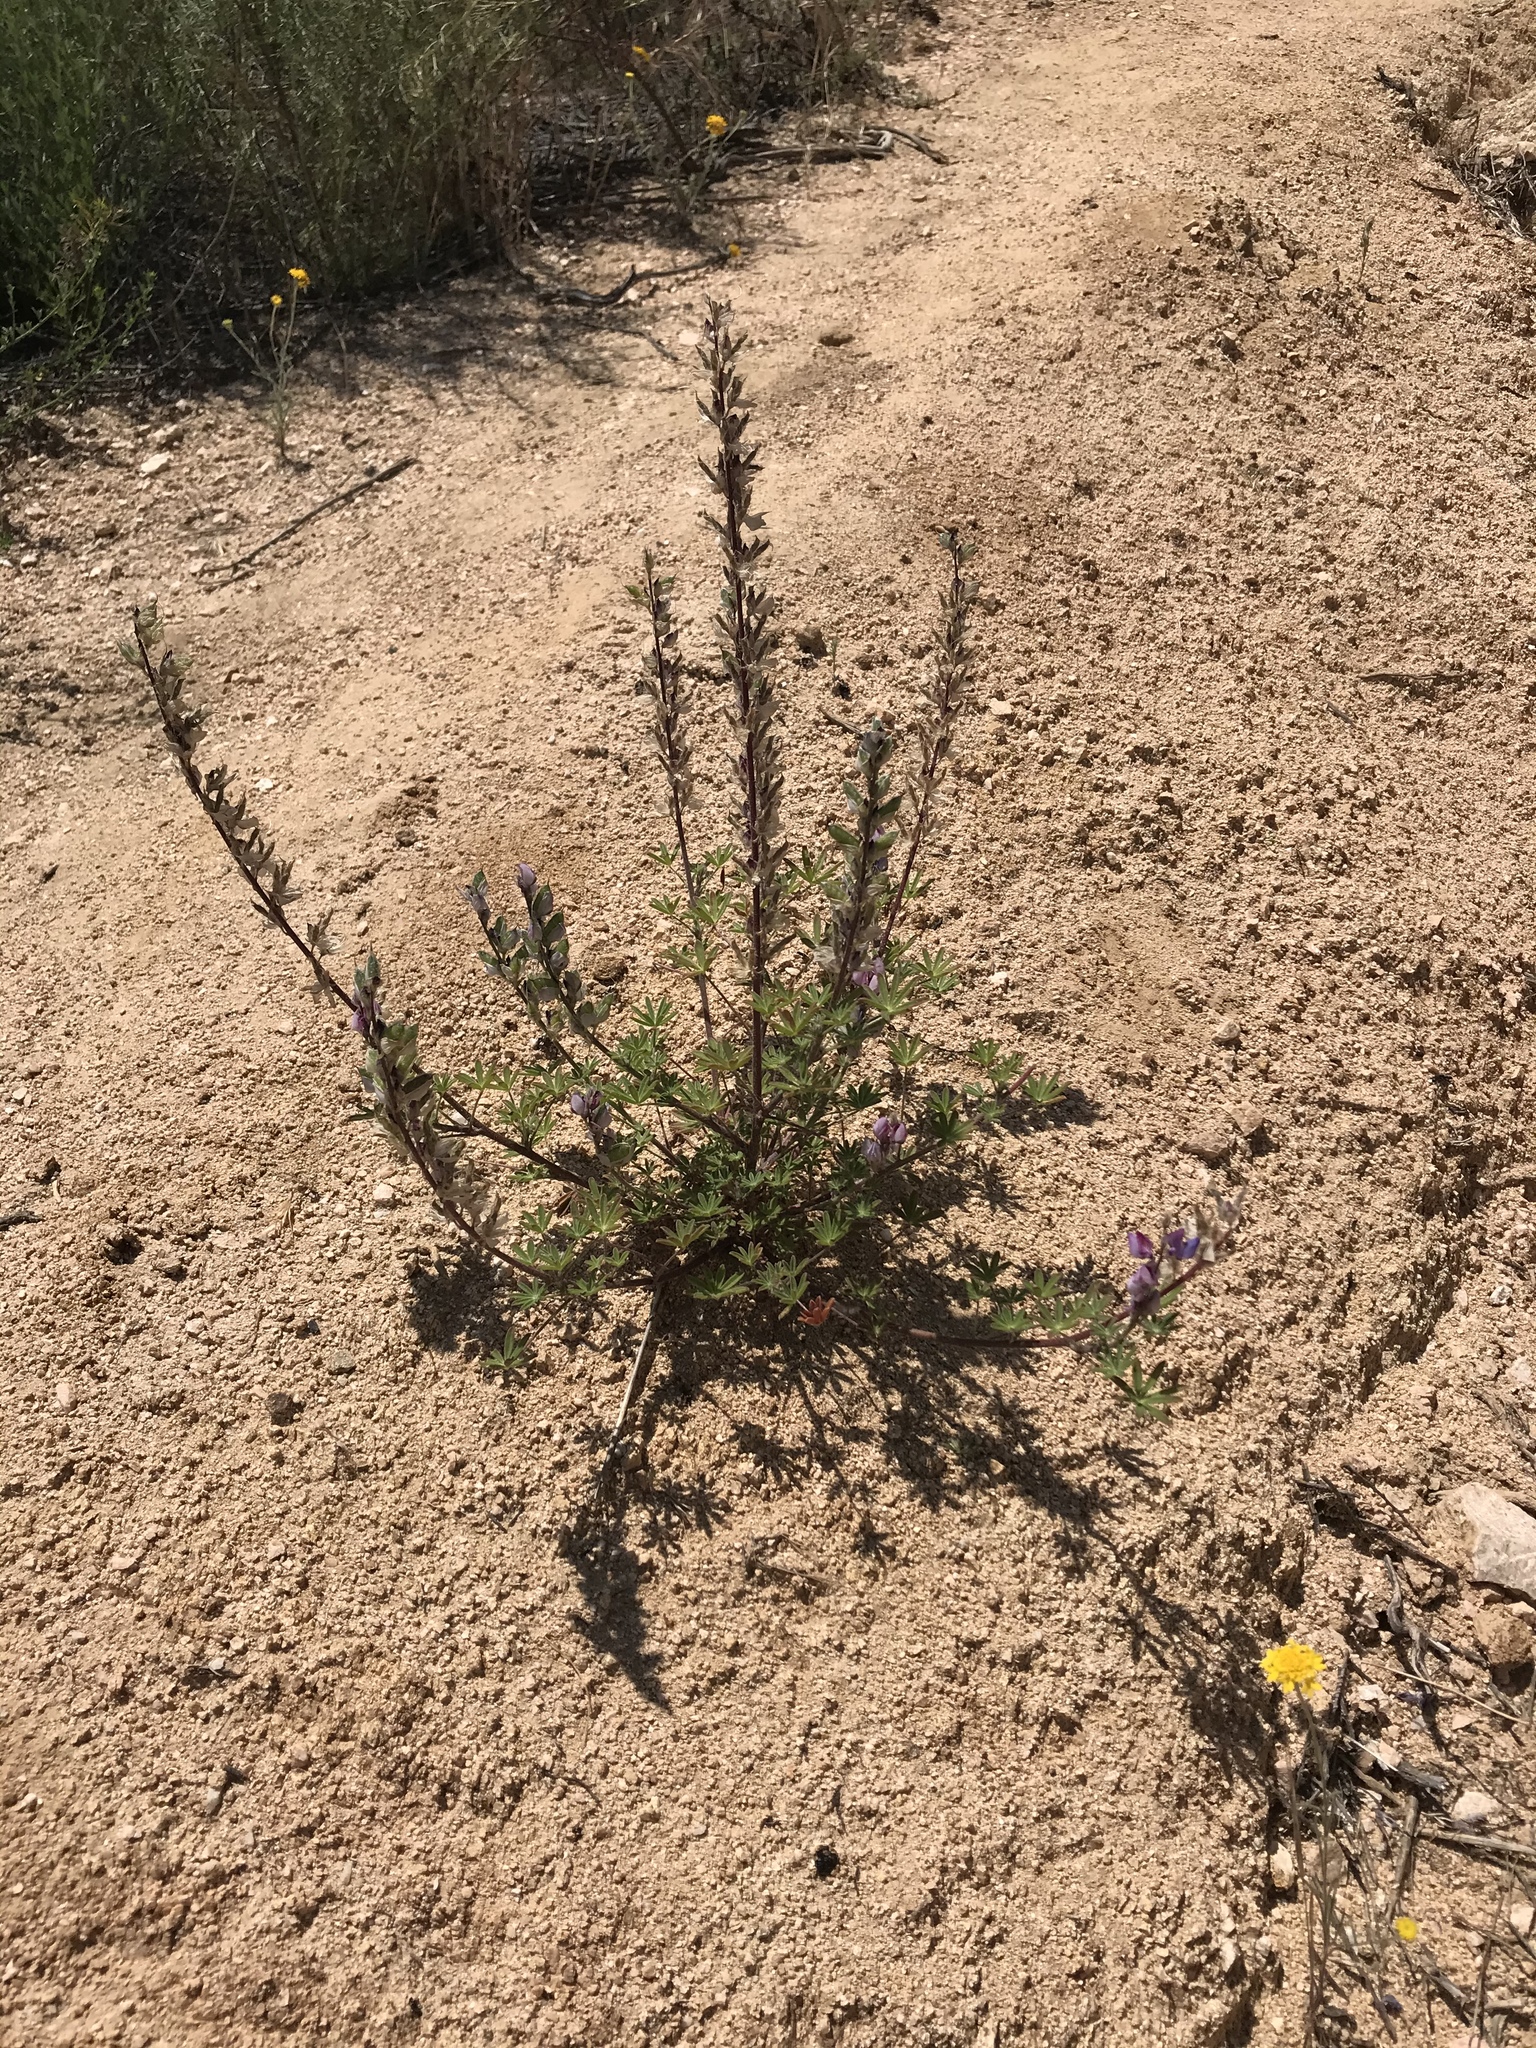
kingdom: Plantae
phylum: Tracheophyta
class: Magnoliopsida
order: Fabales
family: Fabaceae
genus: Lupinus
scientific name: Lupinus sparsiflorus
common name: Coulter's lupine
